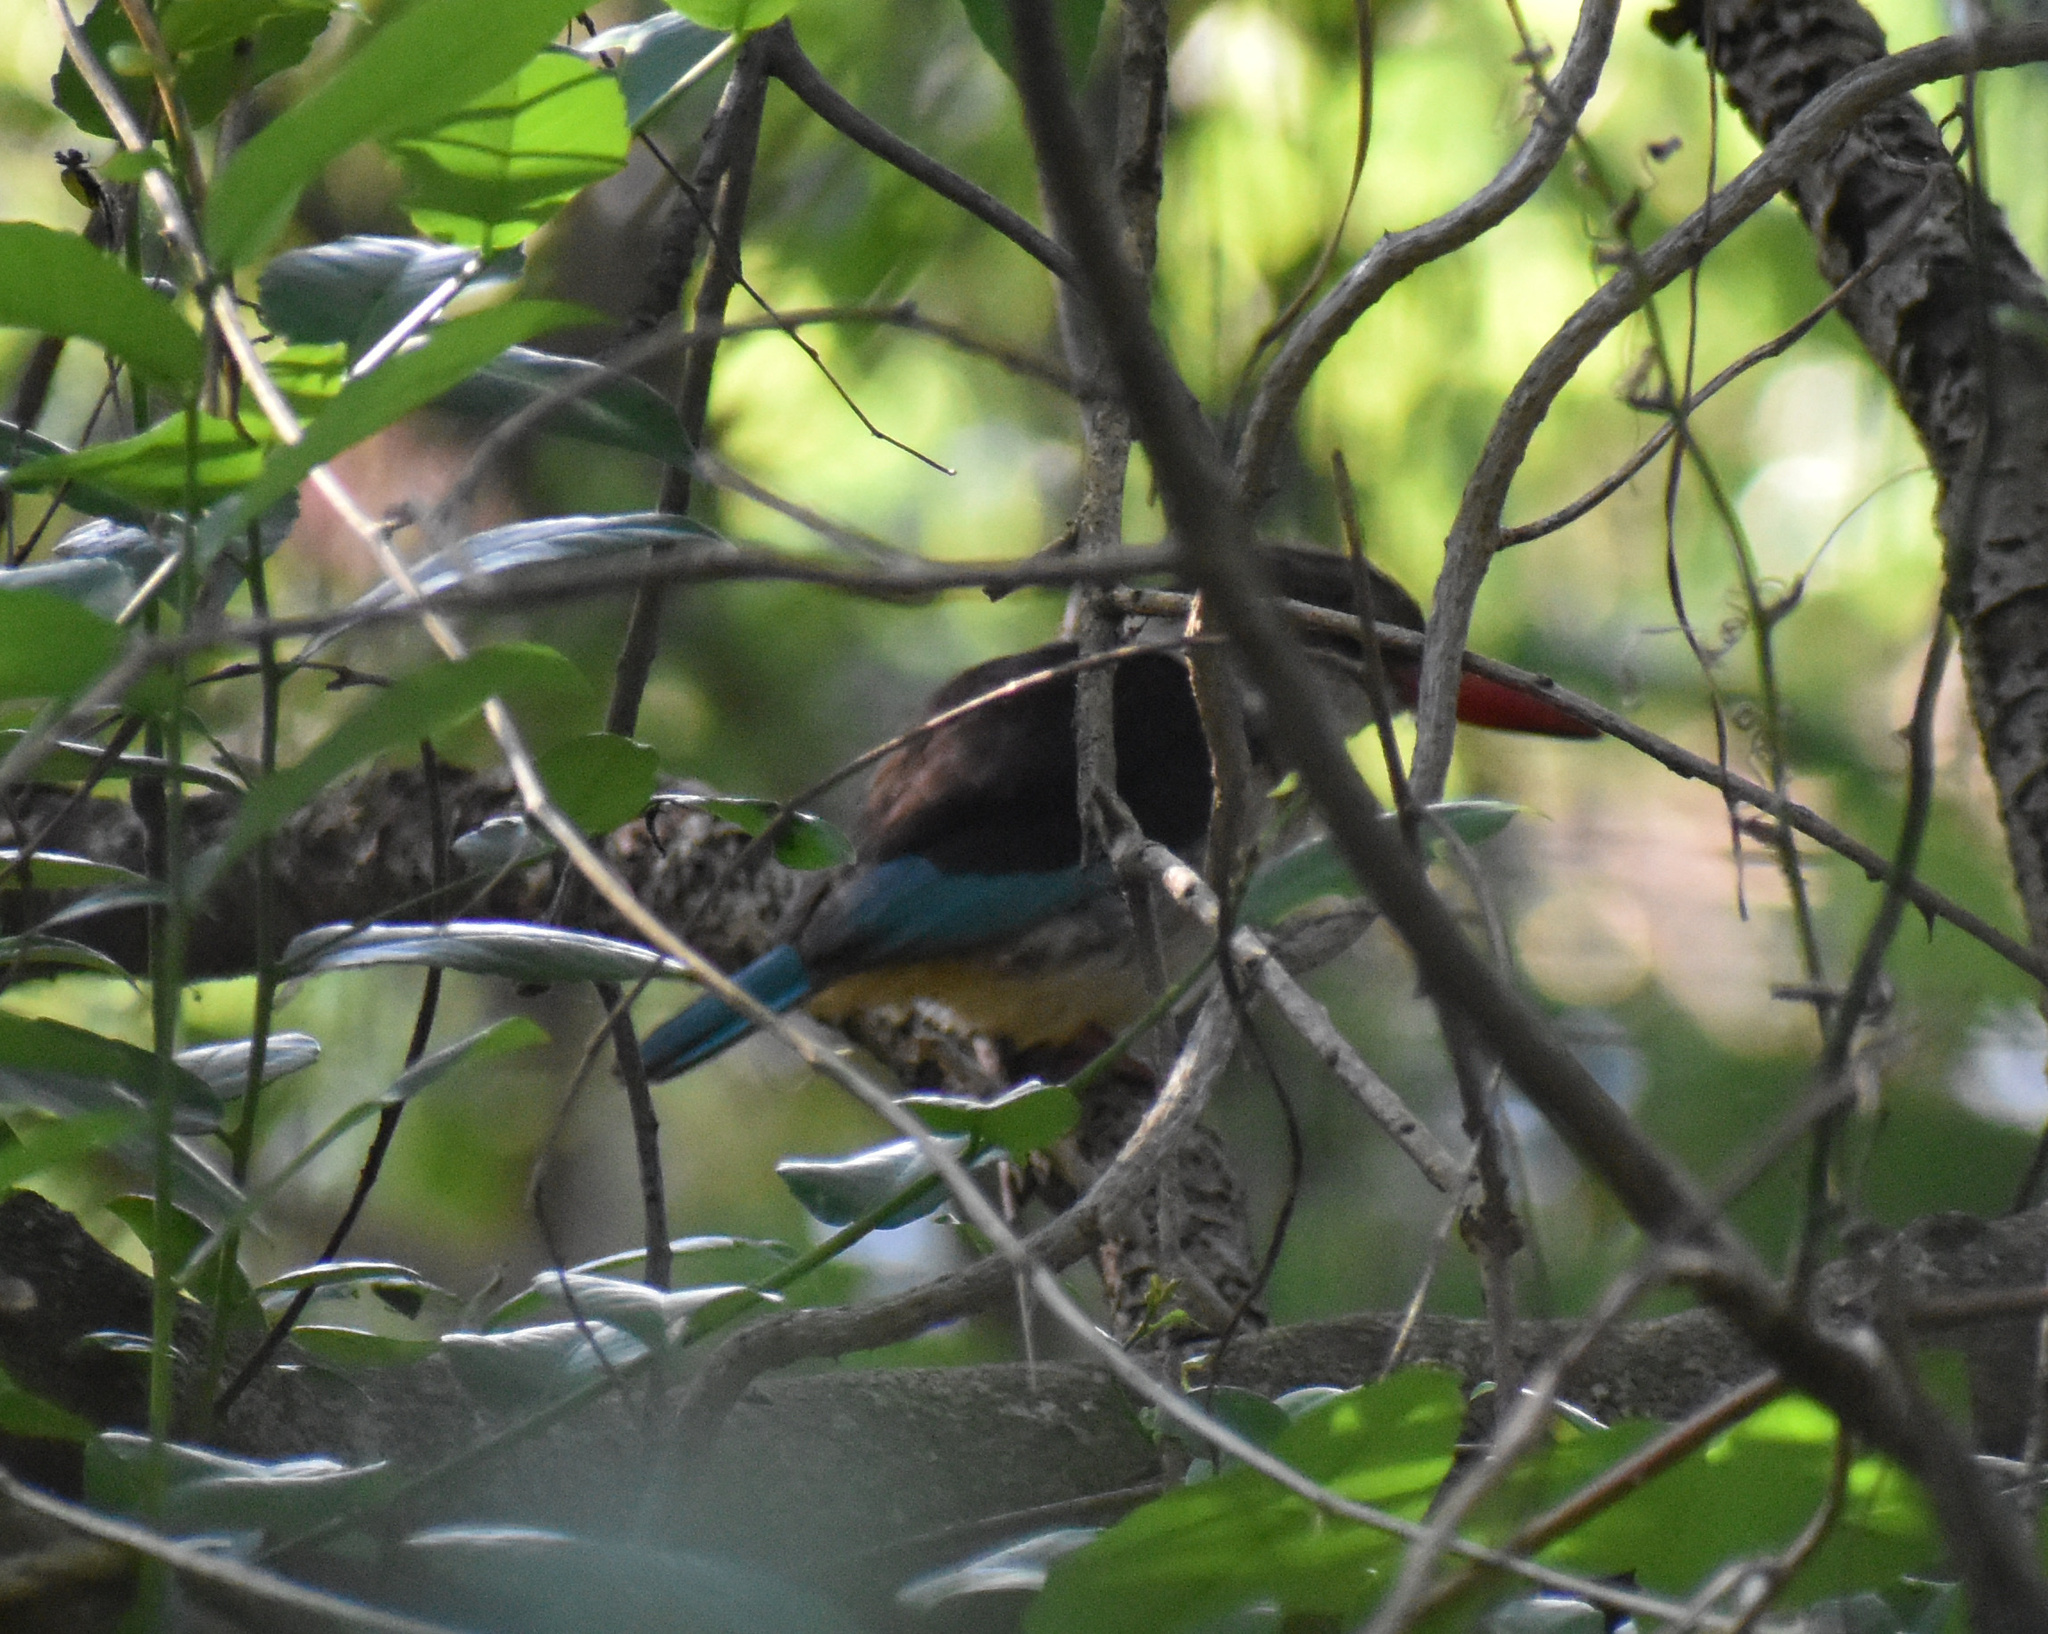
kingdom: Animalia
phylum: Chordata
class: Aves
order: Coraciiformes
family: Alcedinidae
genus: Halcyon
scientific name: Halcyon albiventris
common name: Brown-hooded kingfisher
